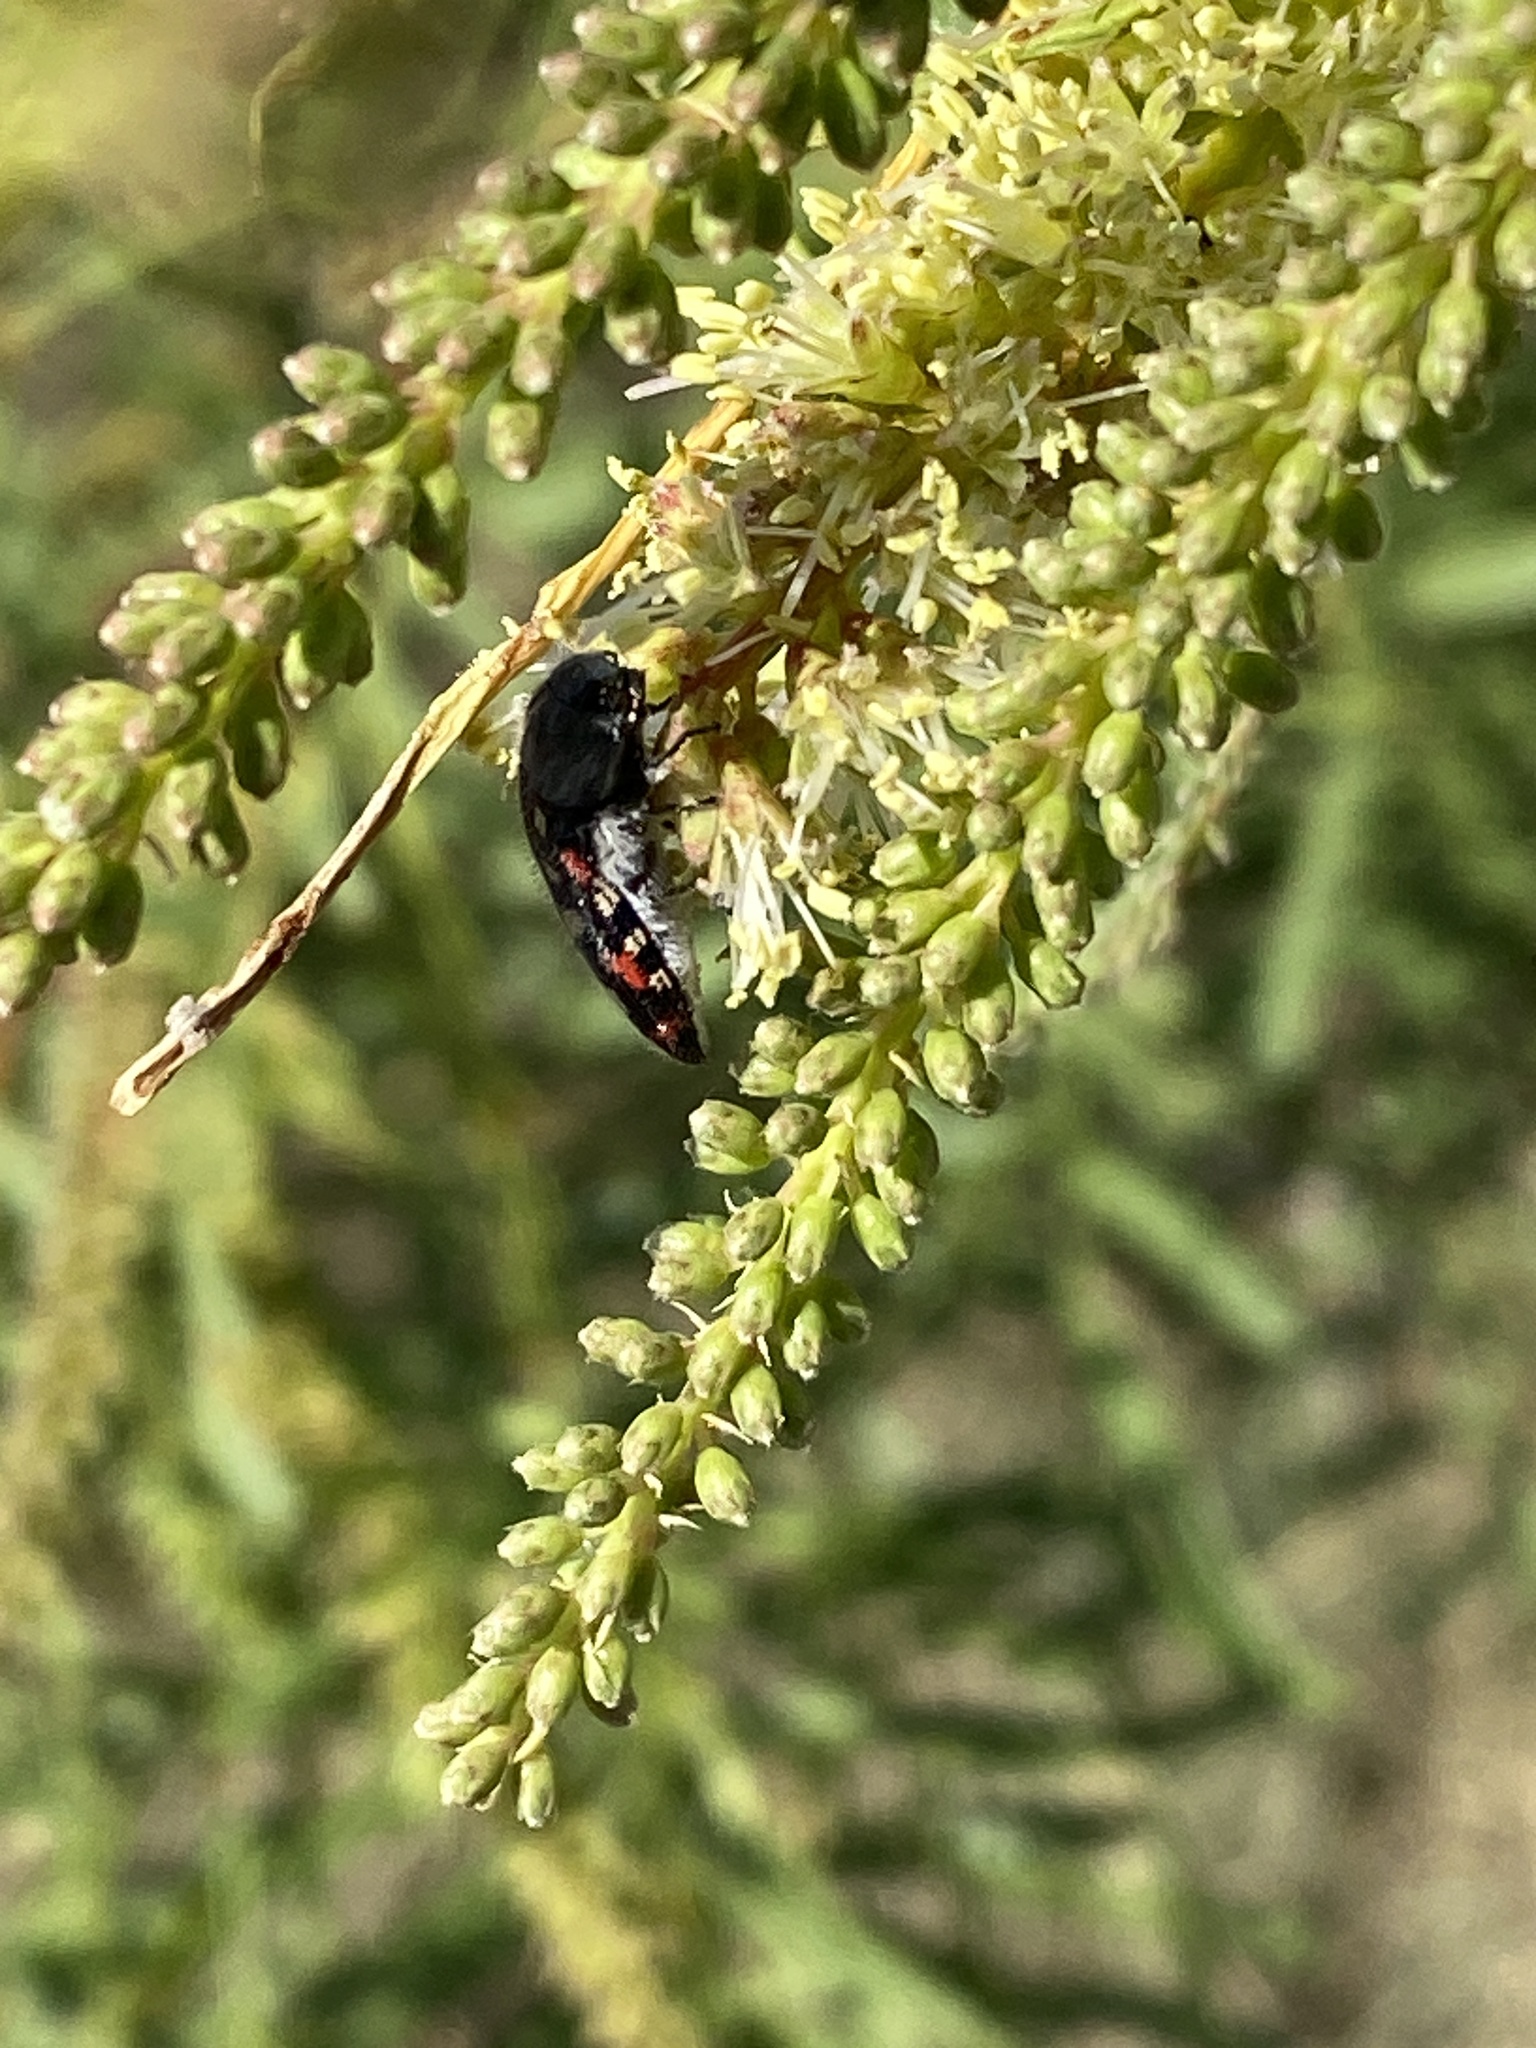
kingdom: Animalia
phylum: Arthropoda
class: Insecta
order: Coleoptera
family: Buprestidae
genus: Acmaeodera
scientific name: Acmaeodera gibbula
